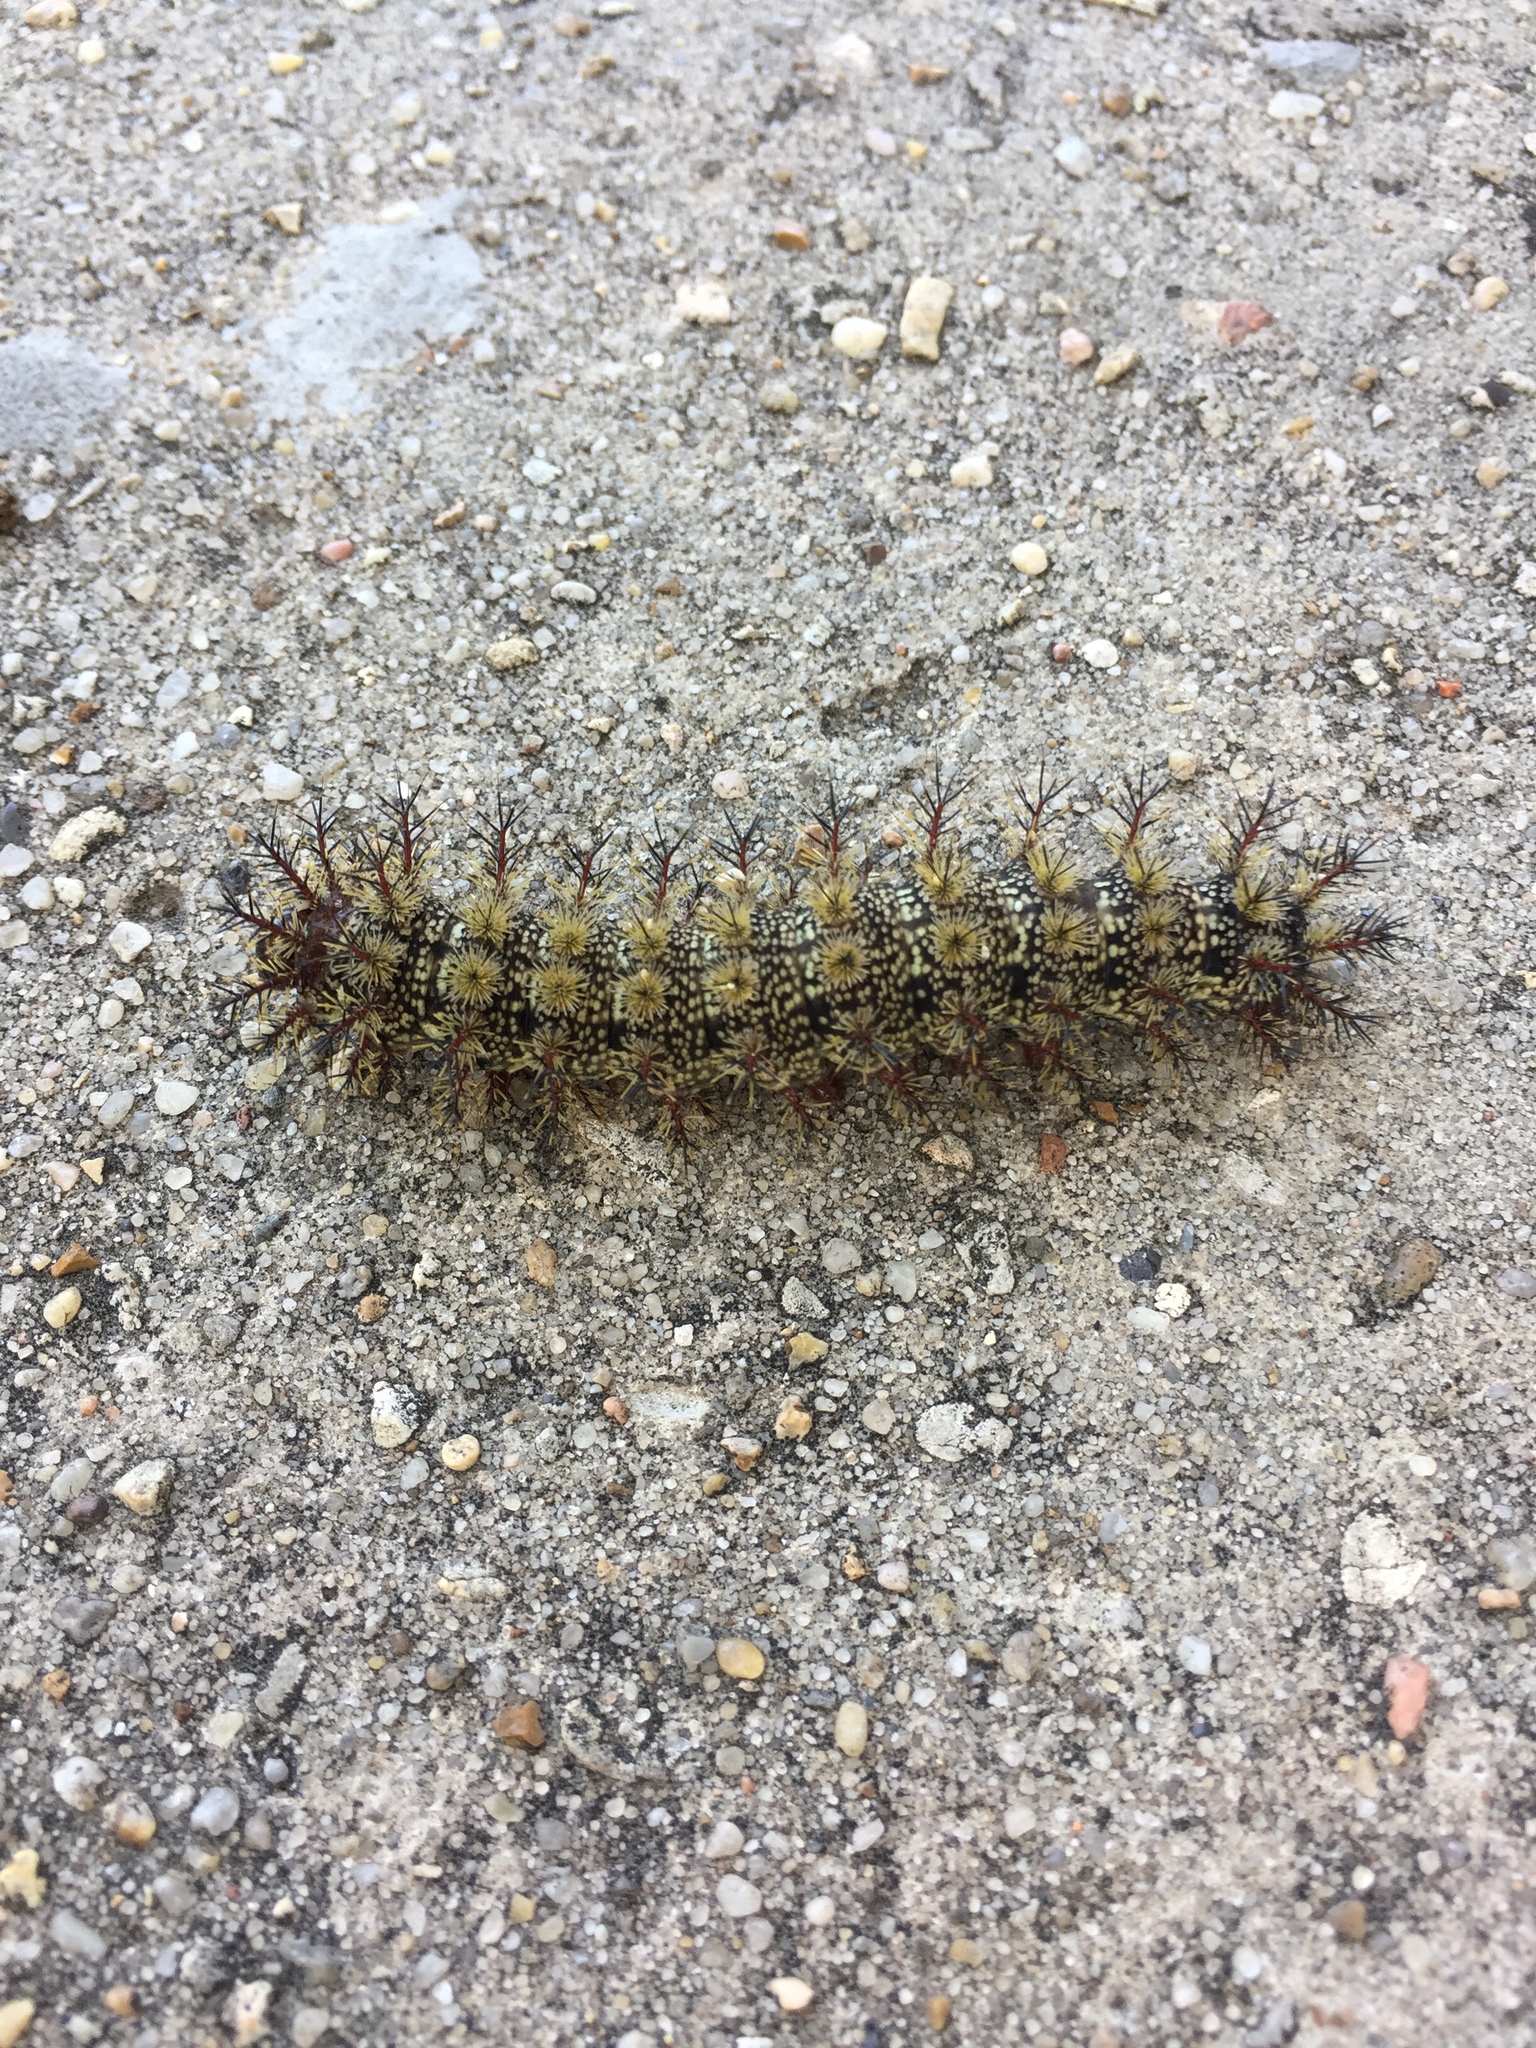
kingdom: Animalia
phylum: Arthropoda
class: Insecta
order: Lepidoptera
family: Saturniidae
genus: Hemileuca
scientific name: Hemileuca maia
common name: Eastern buckmoth
